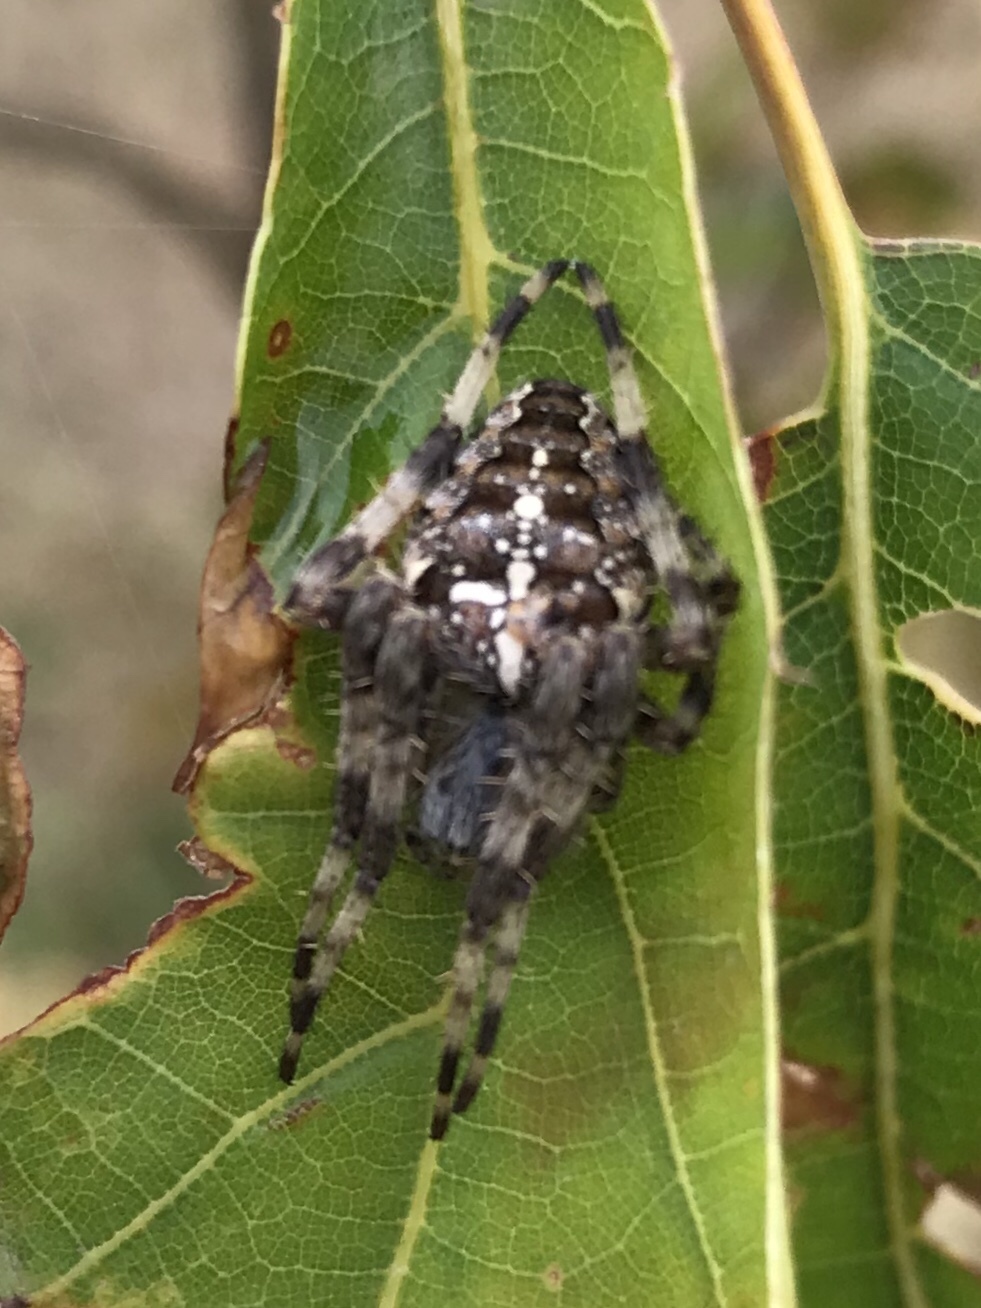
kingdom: Animalia
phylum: Arthropoda
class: Arachnida
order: Araneae
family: Araneidae
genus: Araneus
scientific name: Araneus diadematus
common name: Cross orbweaver
